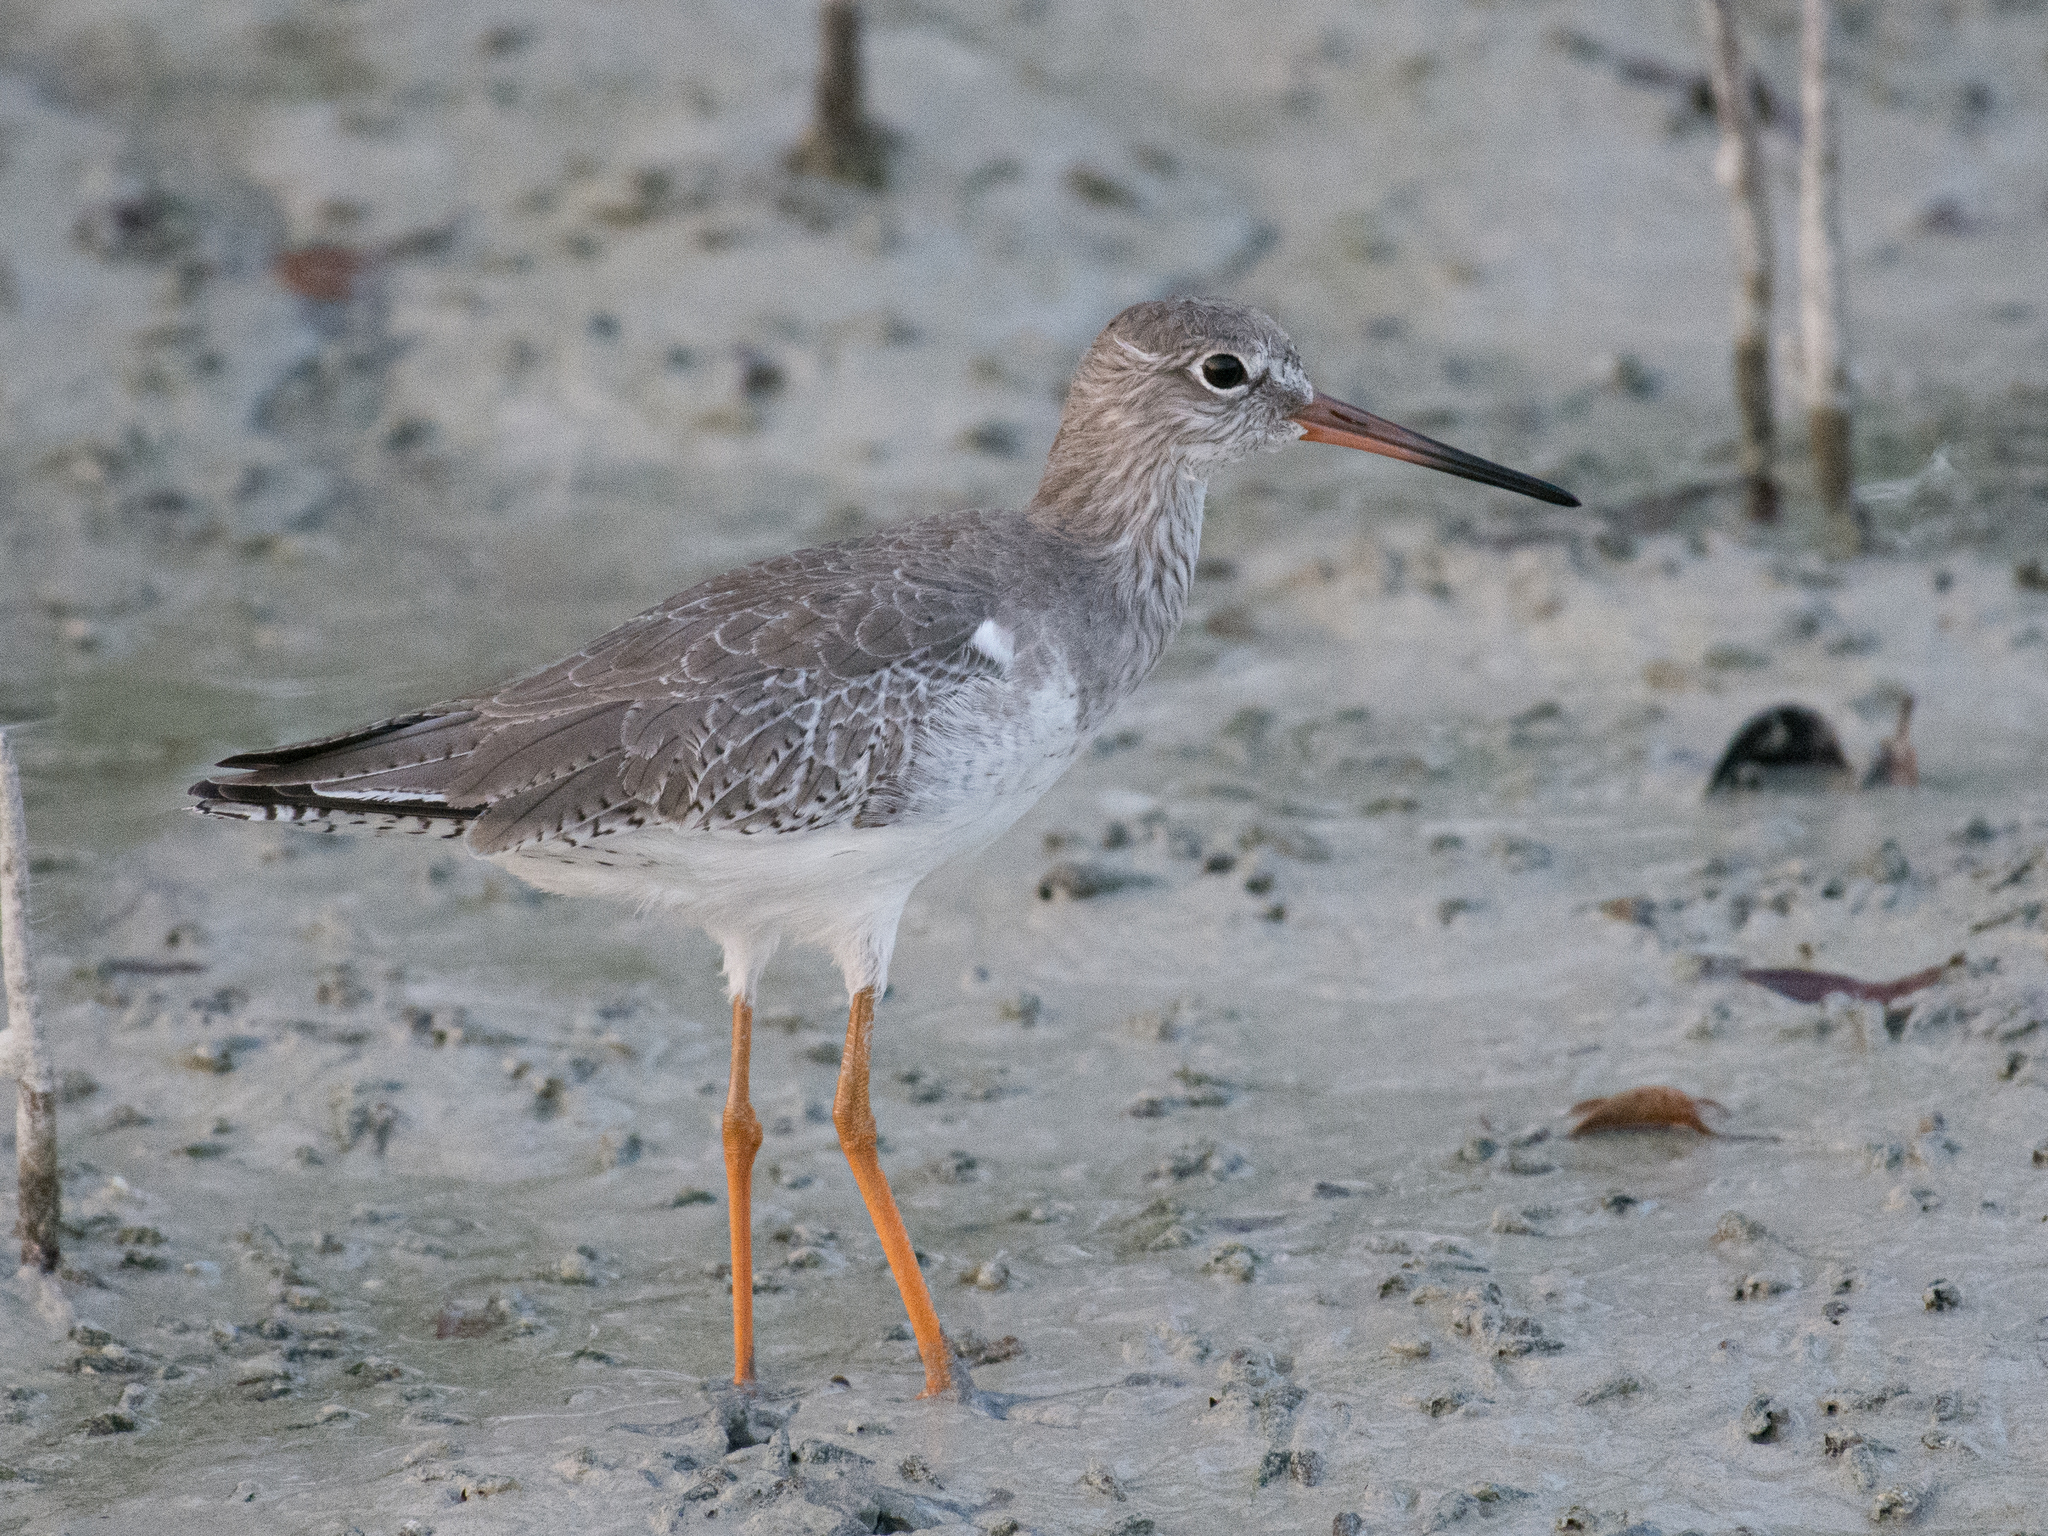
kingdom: Animalia
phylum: Chordata
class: Aves
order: Charadriiformes
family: Scolopacidae
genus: Tringa
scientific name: Tringa totanus
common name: Common redshank
